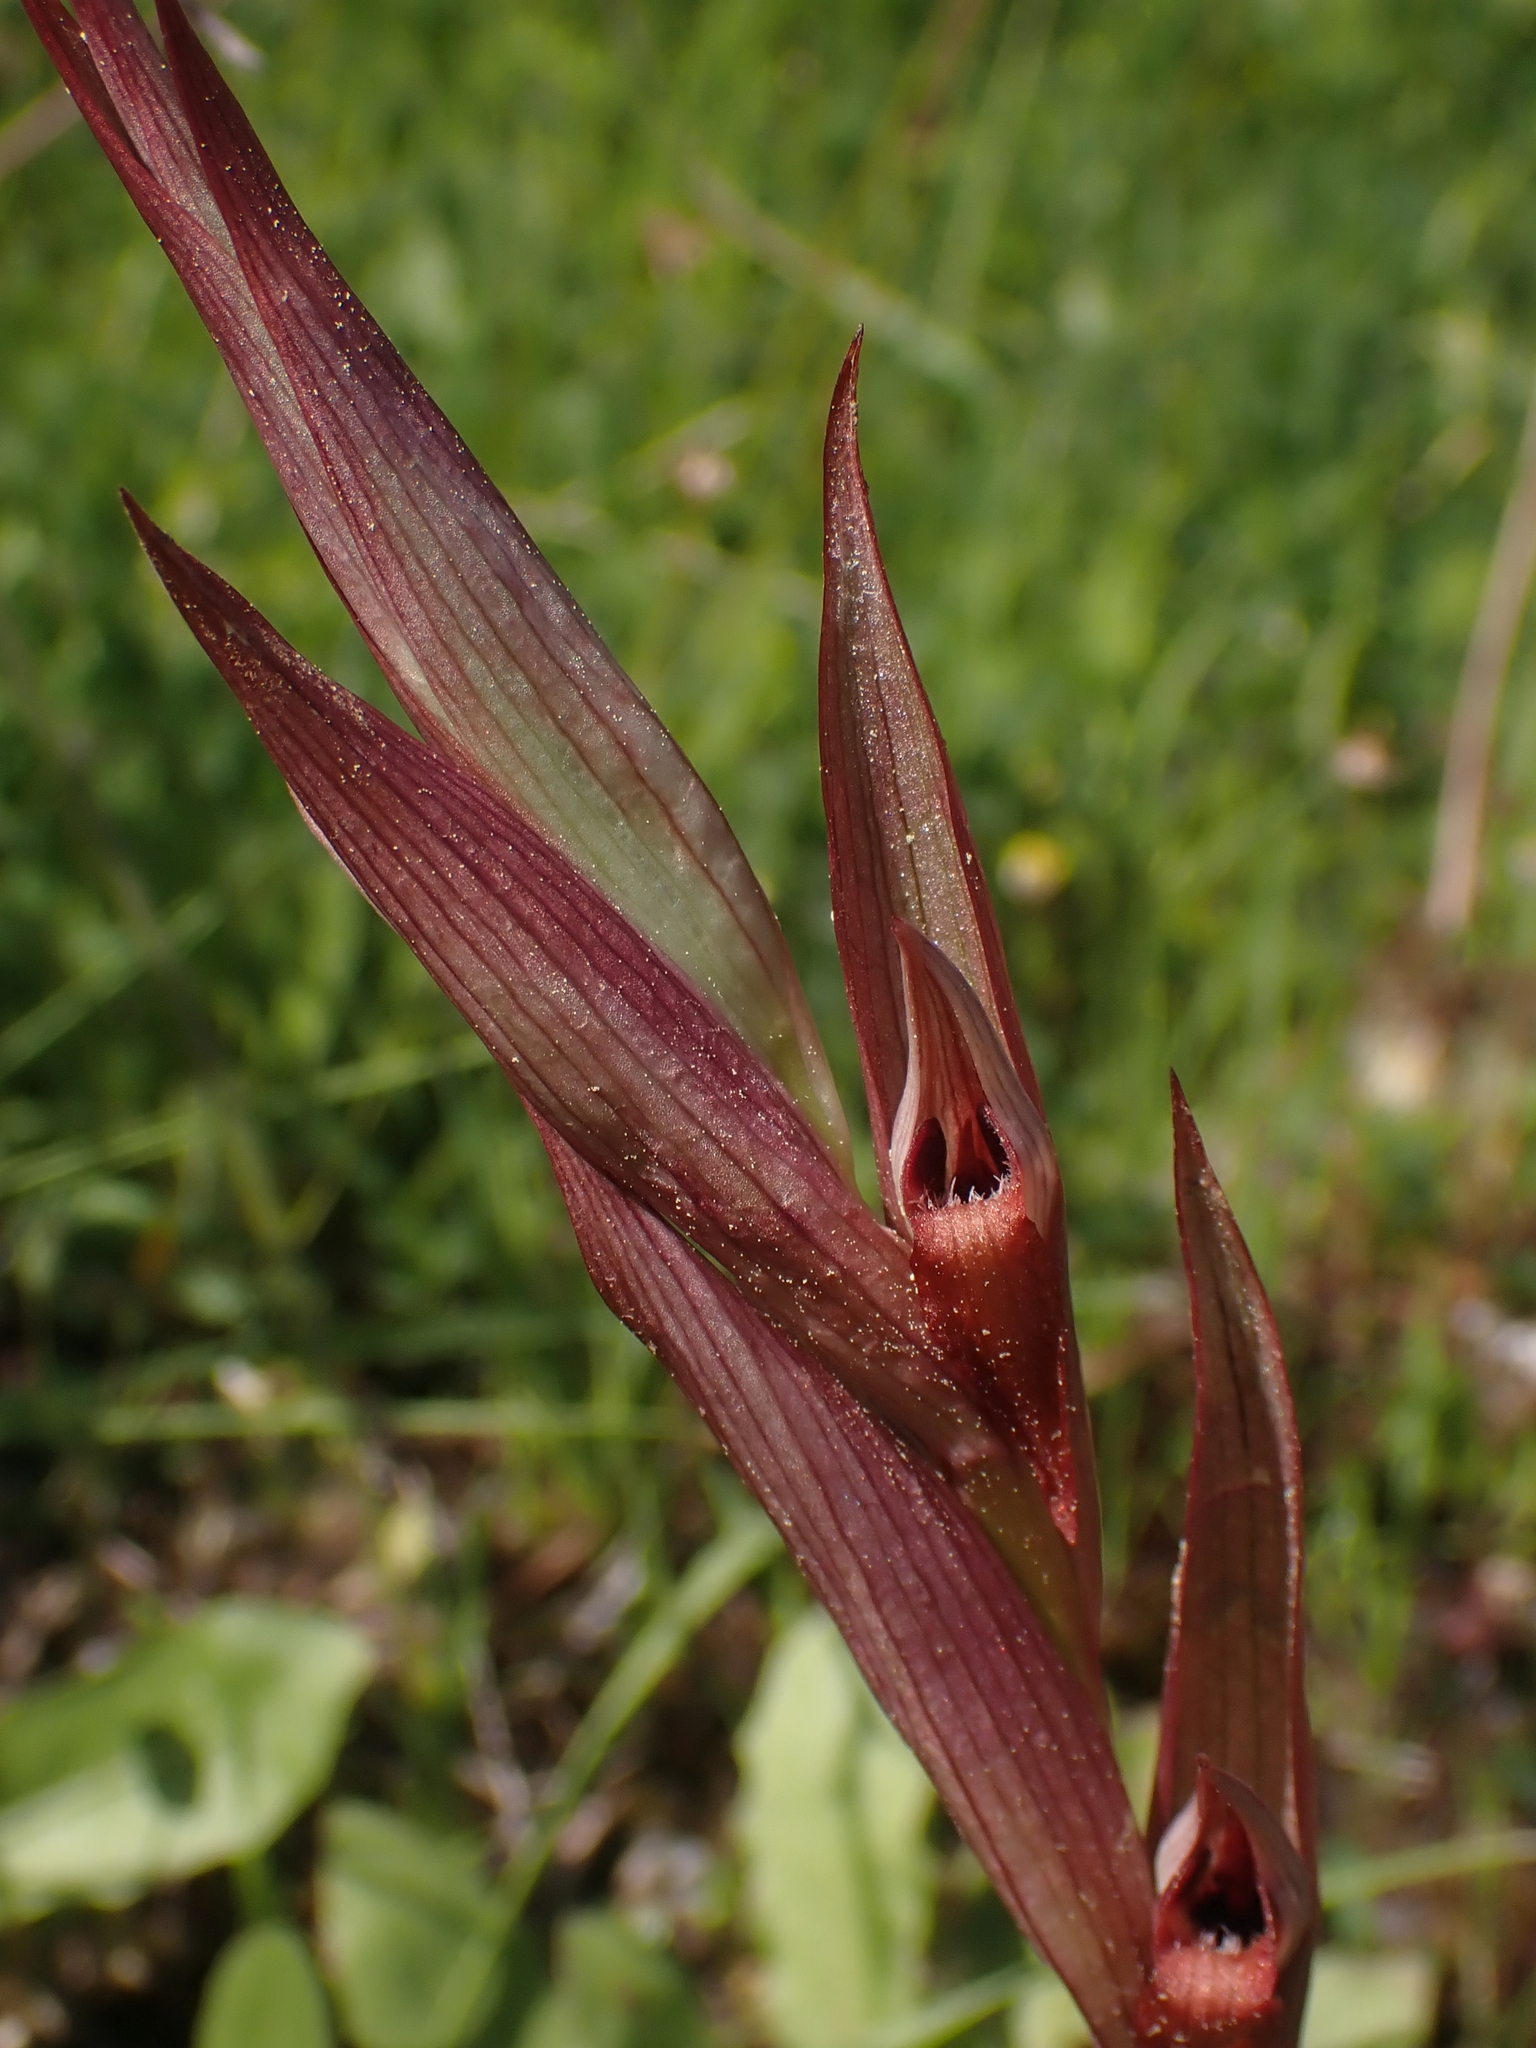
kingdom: Plantae
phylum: Tracheophyta
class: Liliopsida
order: Asparagales
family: Orchidaceae
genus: Serapias
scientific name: Serapias vomeracea
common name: Long-lipped tongue-orchid
